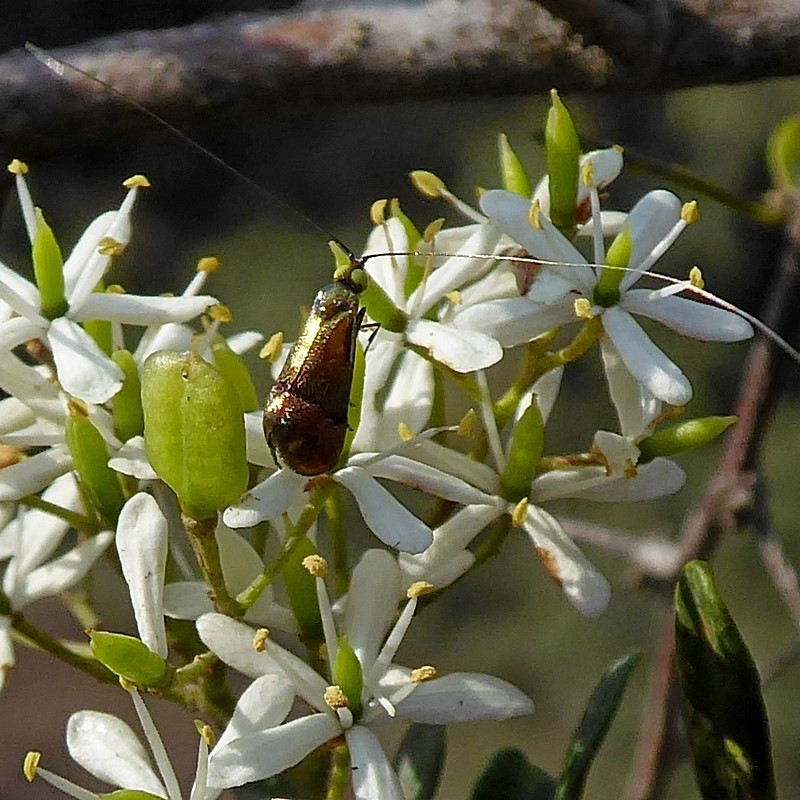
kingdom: Animalia
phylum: Arthropoda
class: Insecta
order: Lepidoptera
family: Adelidae
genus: Nemophora
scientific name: Nemophora laurella
